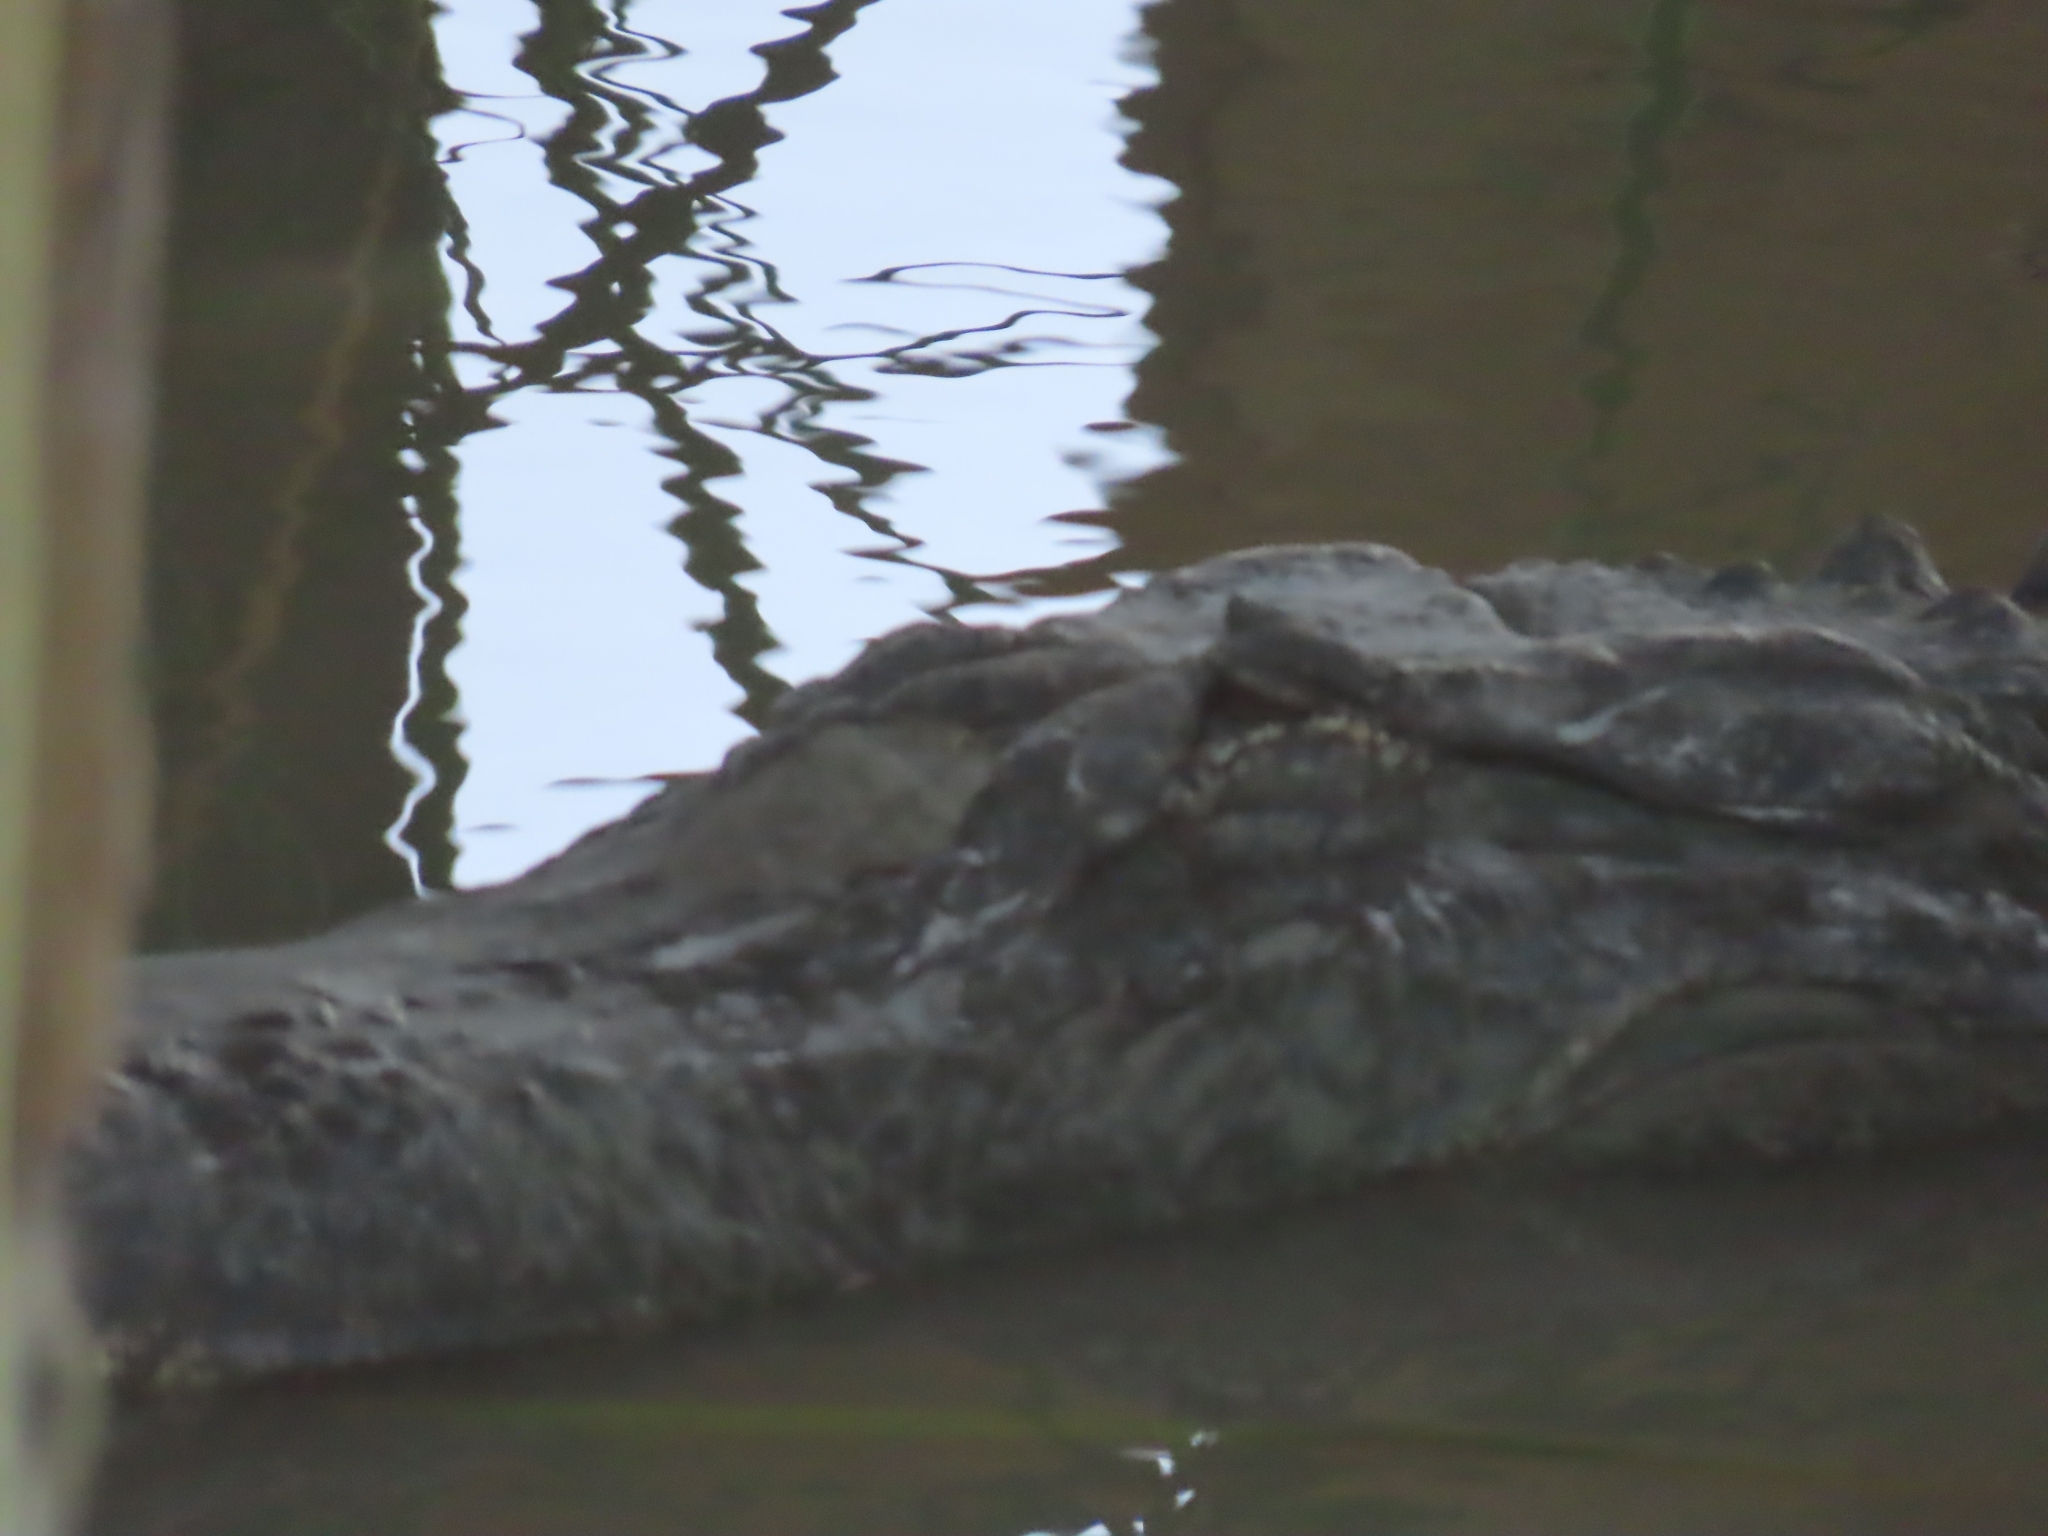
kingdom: Animalia
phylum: Chordata
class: Crocodylia
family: Alligatoridae
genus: Alligator
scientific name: Alligator mississippiensis
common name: American alligator
